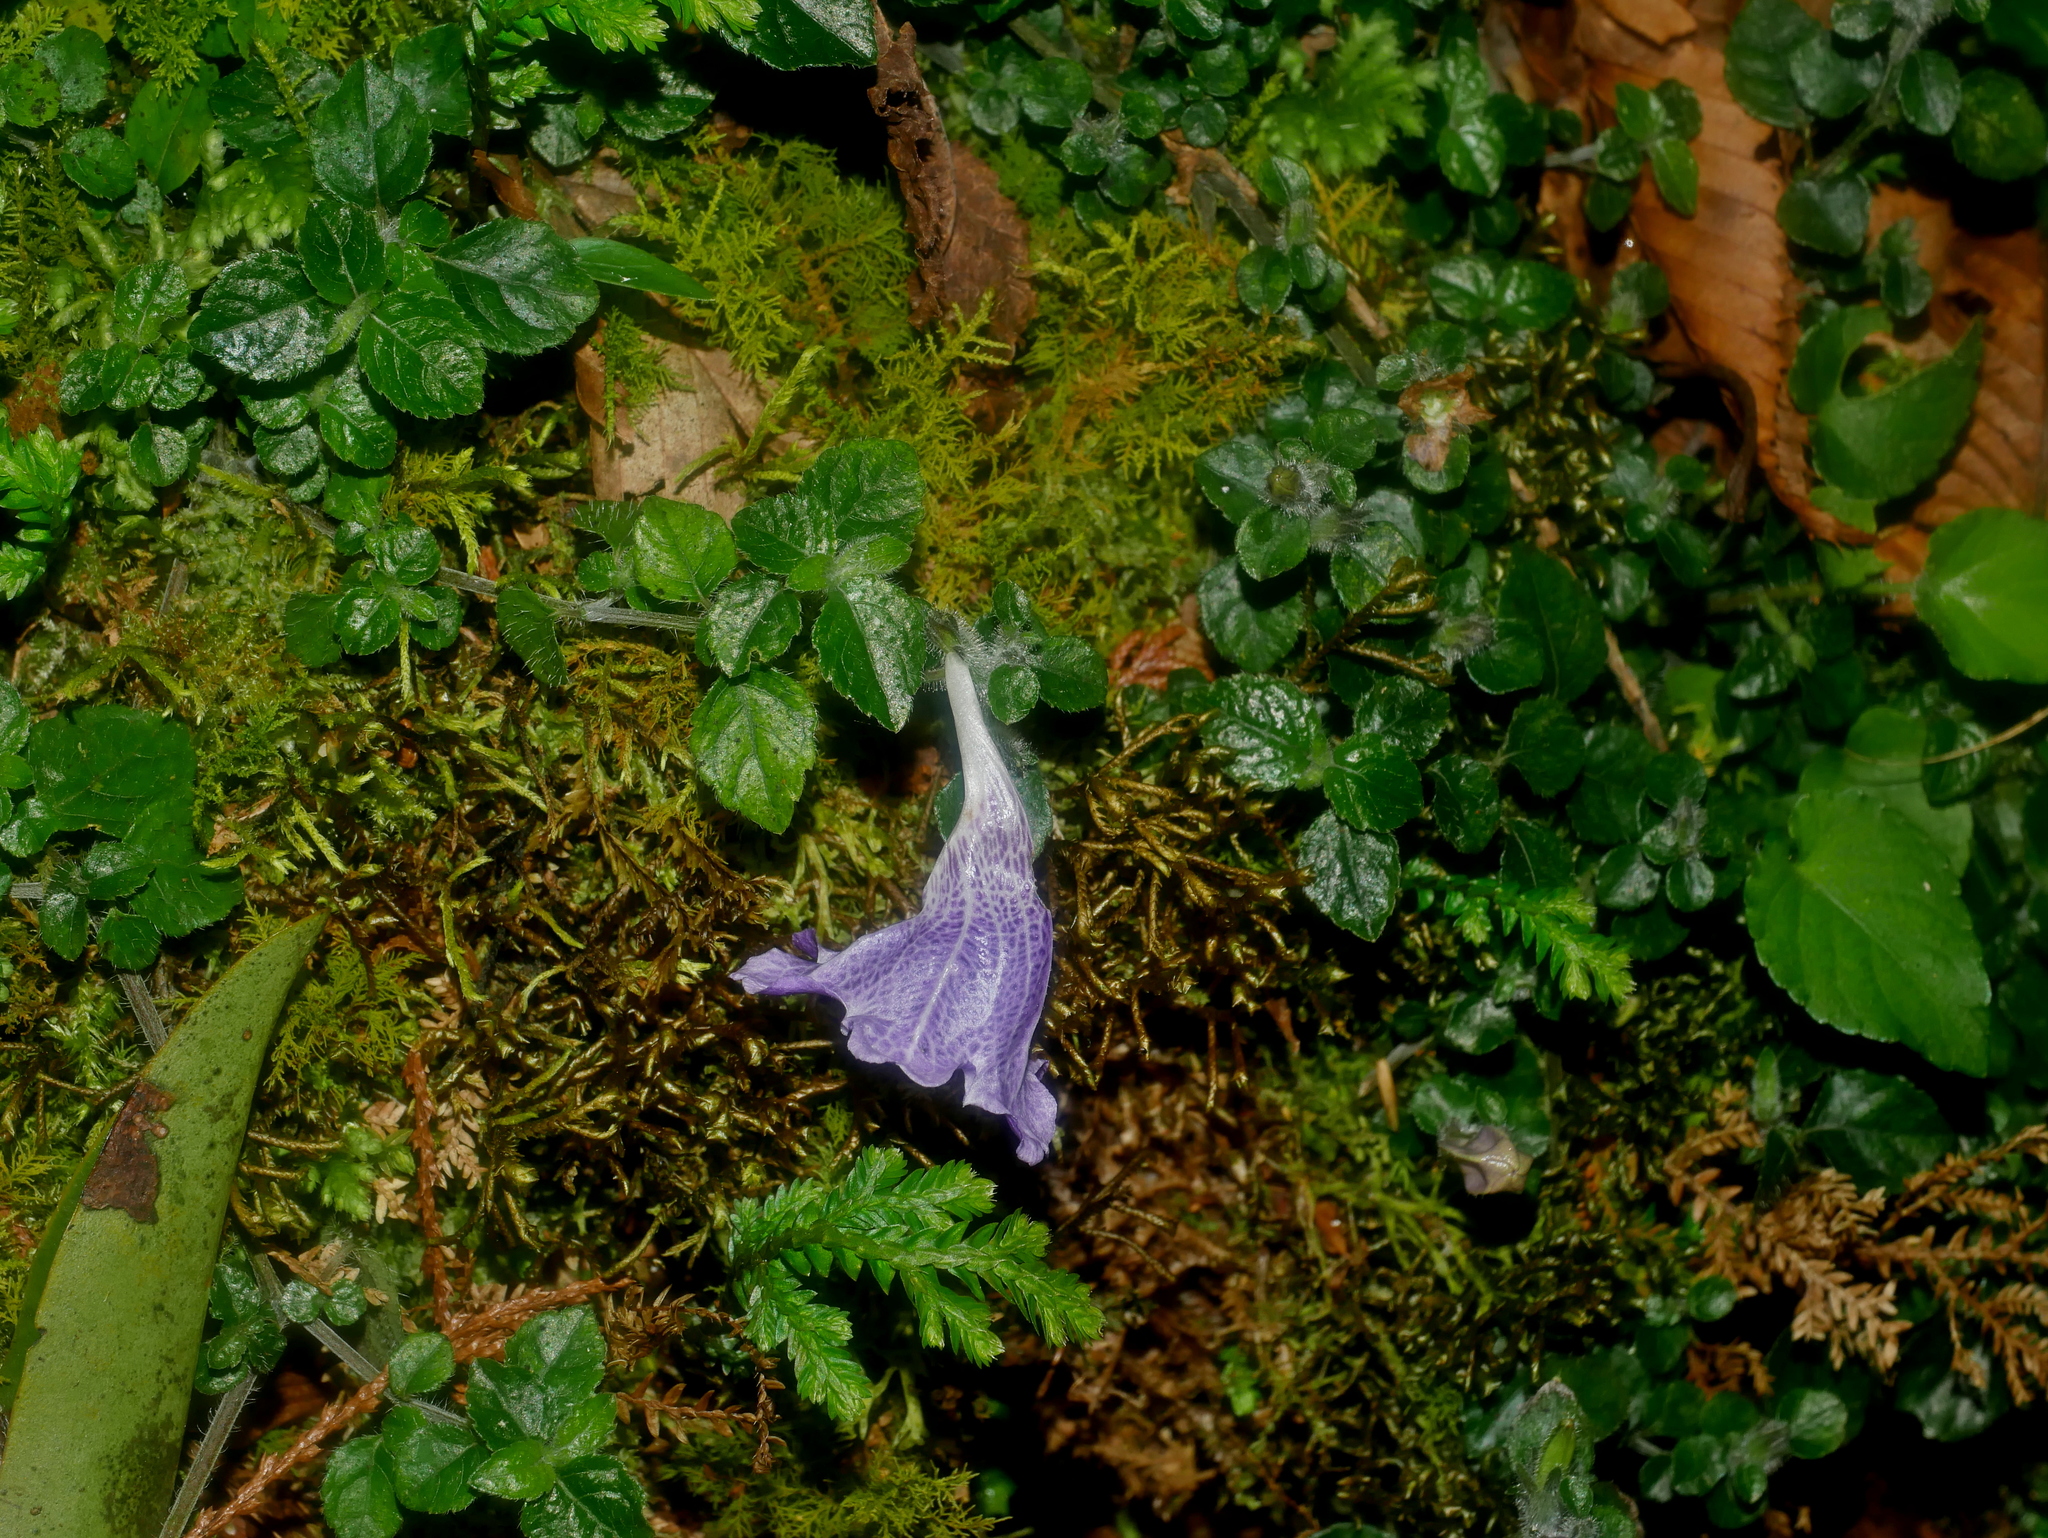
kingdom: Plantae
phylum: Tracheophyta
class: Magnoliopsida
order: Lamiales
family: Acanthaceae
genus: Strobilanthes
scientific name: Strobilanthes rankanensis
